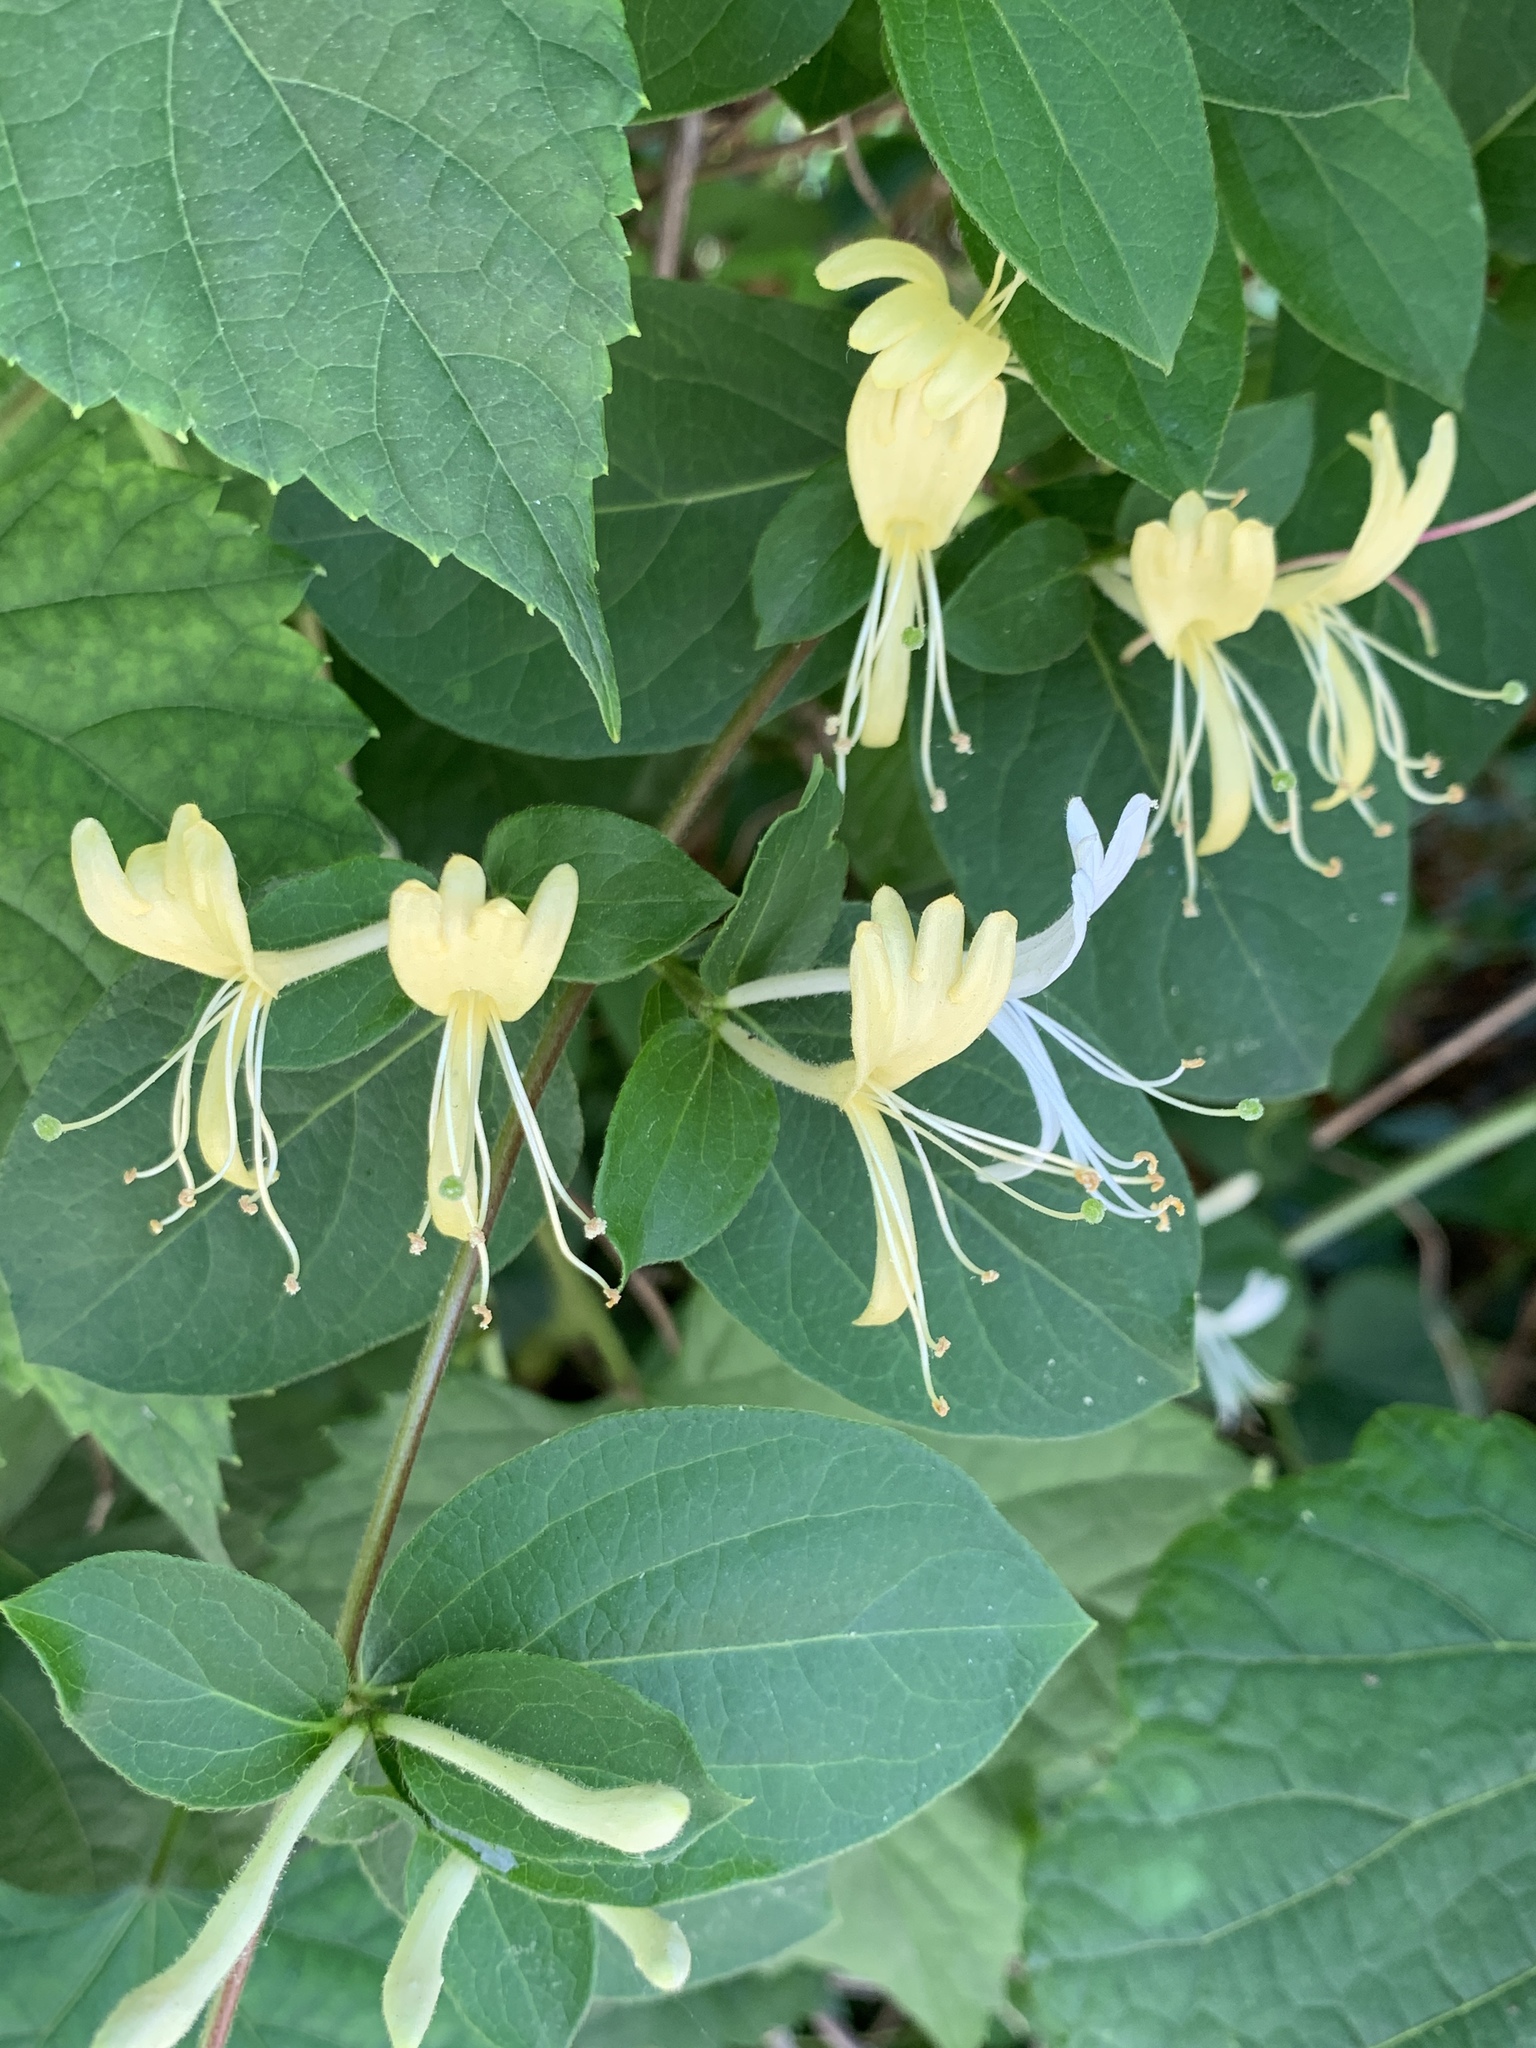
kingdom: Plantae
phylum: Tracheophyta
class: Magnoliopsida
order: Dipsacales
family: Caprifoliaceae
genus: Lonicera
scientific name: Lonicera japonica
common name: Japanese honeysuckle
